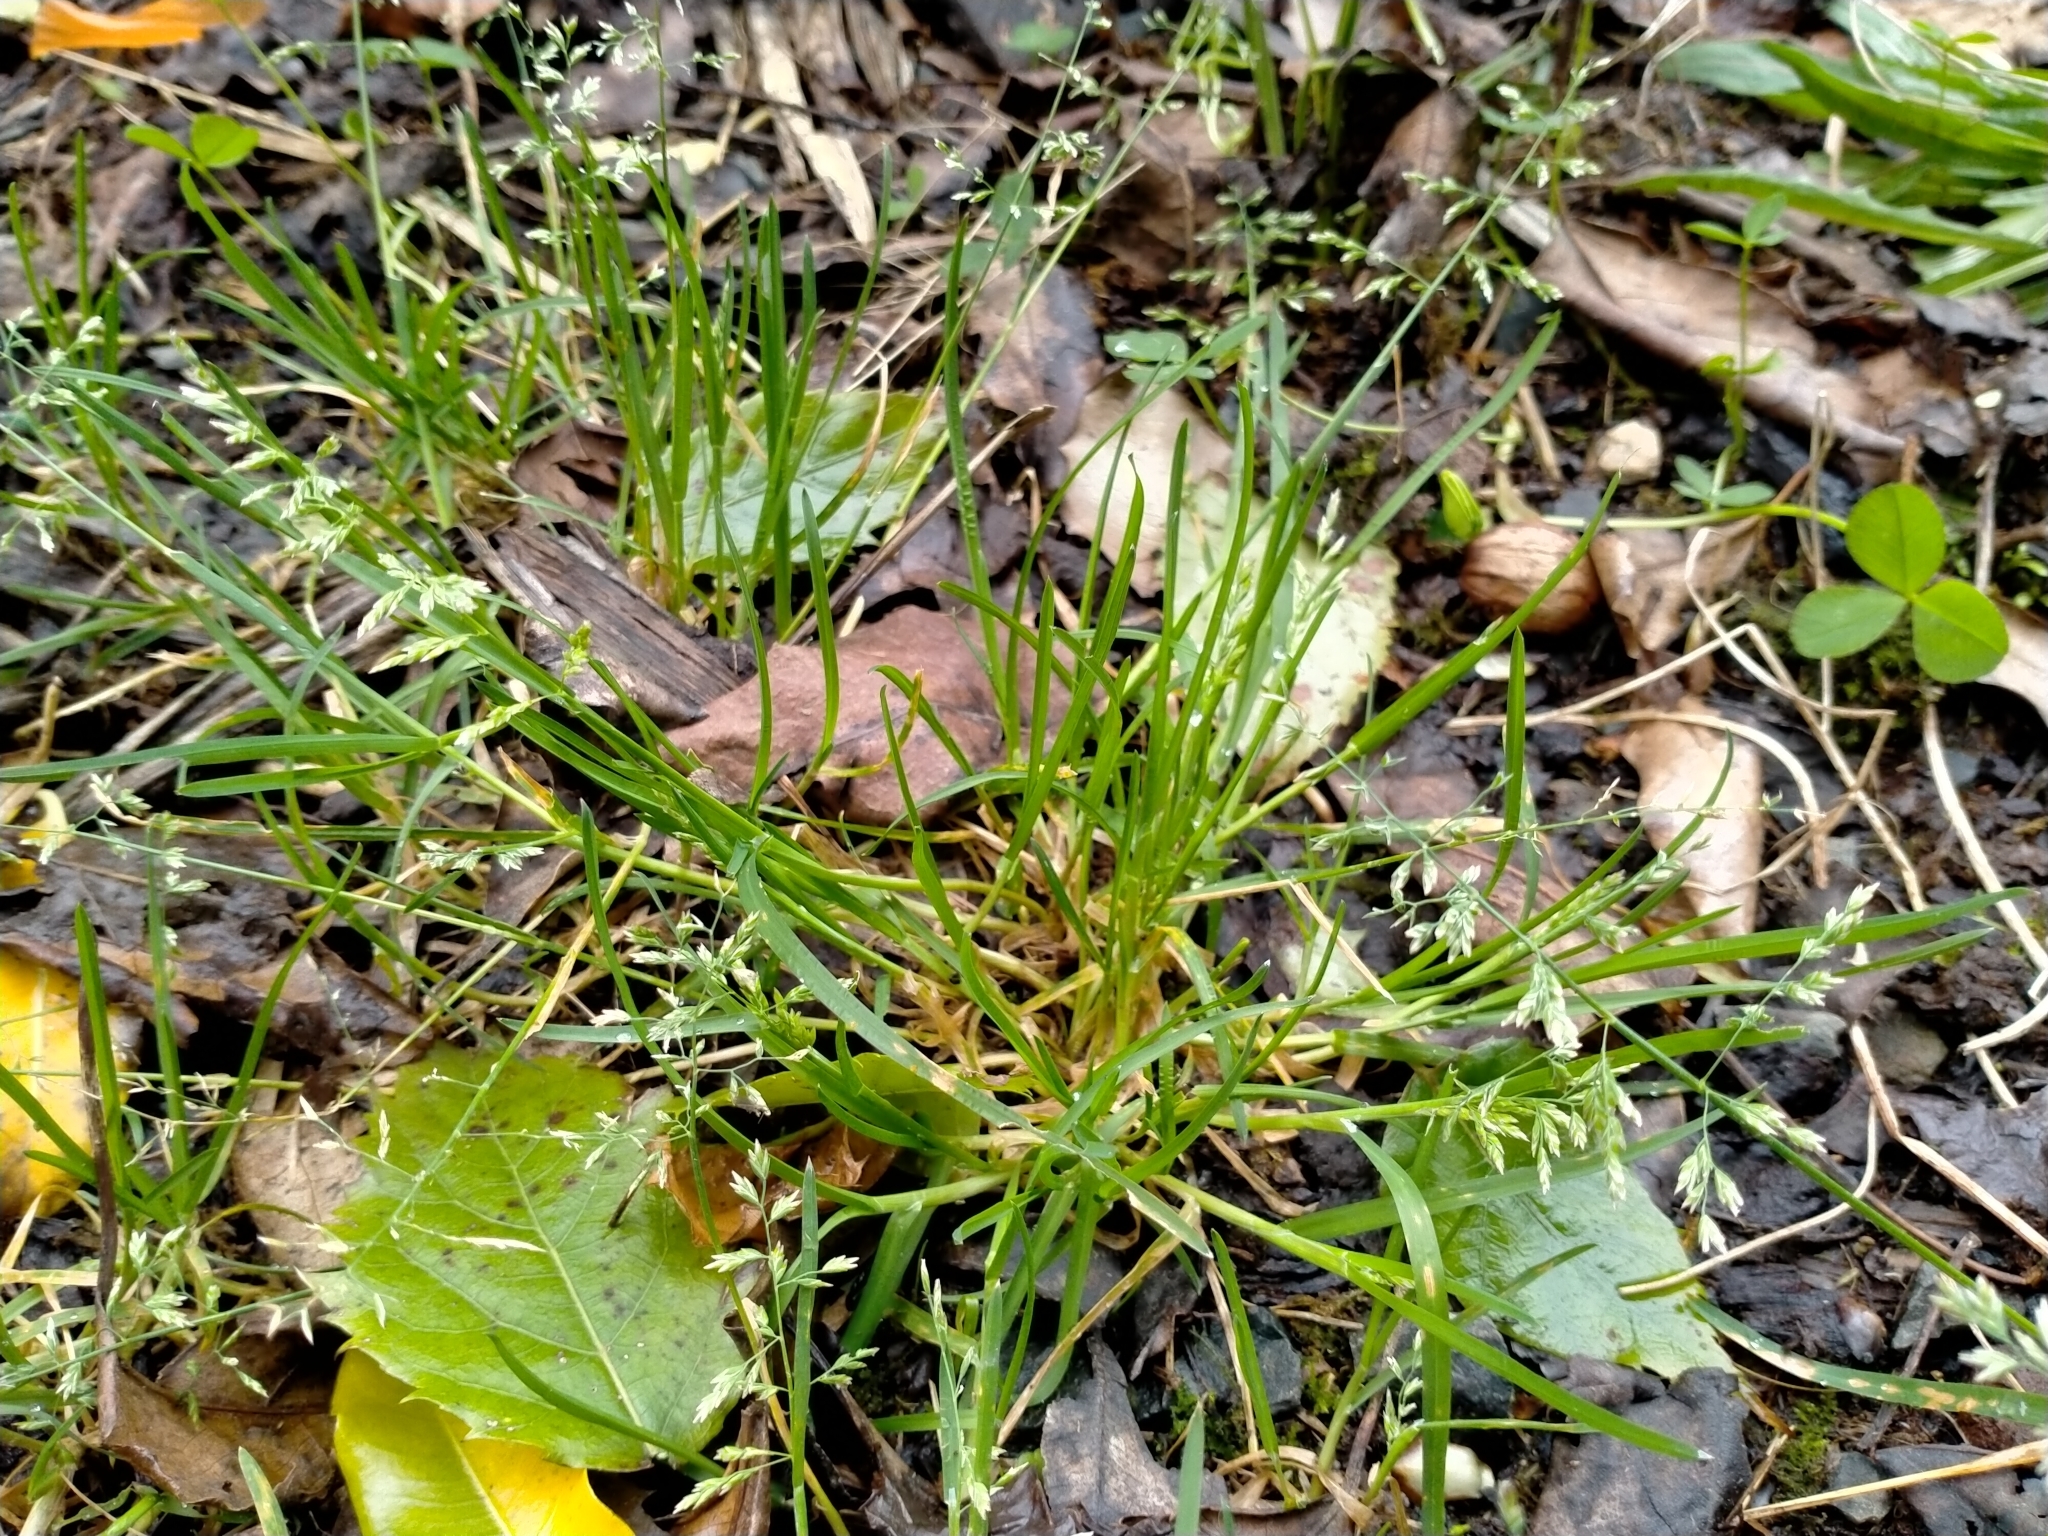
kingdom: Plantae
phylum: Tracheophyta
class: Liliopsida
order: Poales
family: Poaceae
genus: Poa
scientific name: Poa annua
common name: Annual bluegrass
